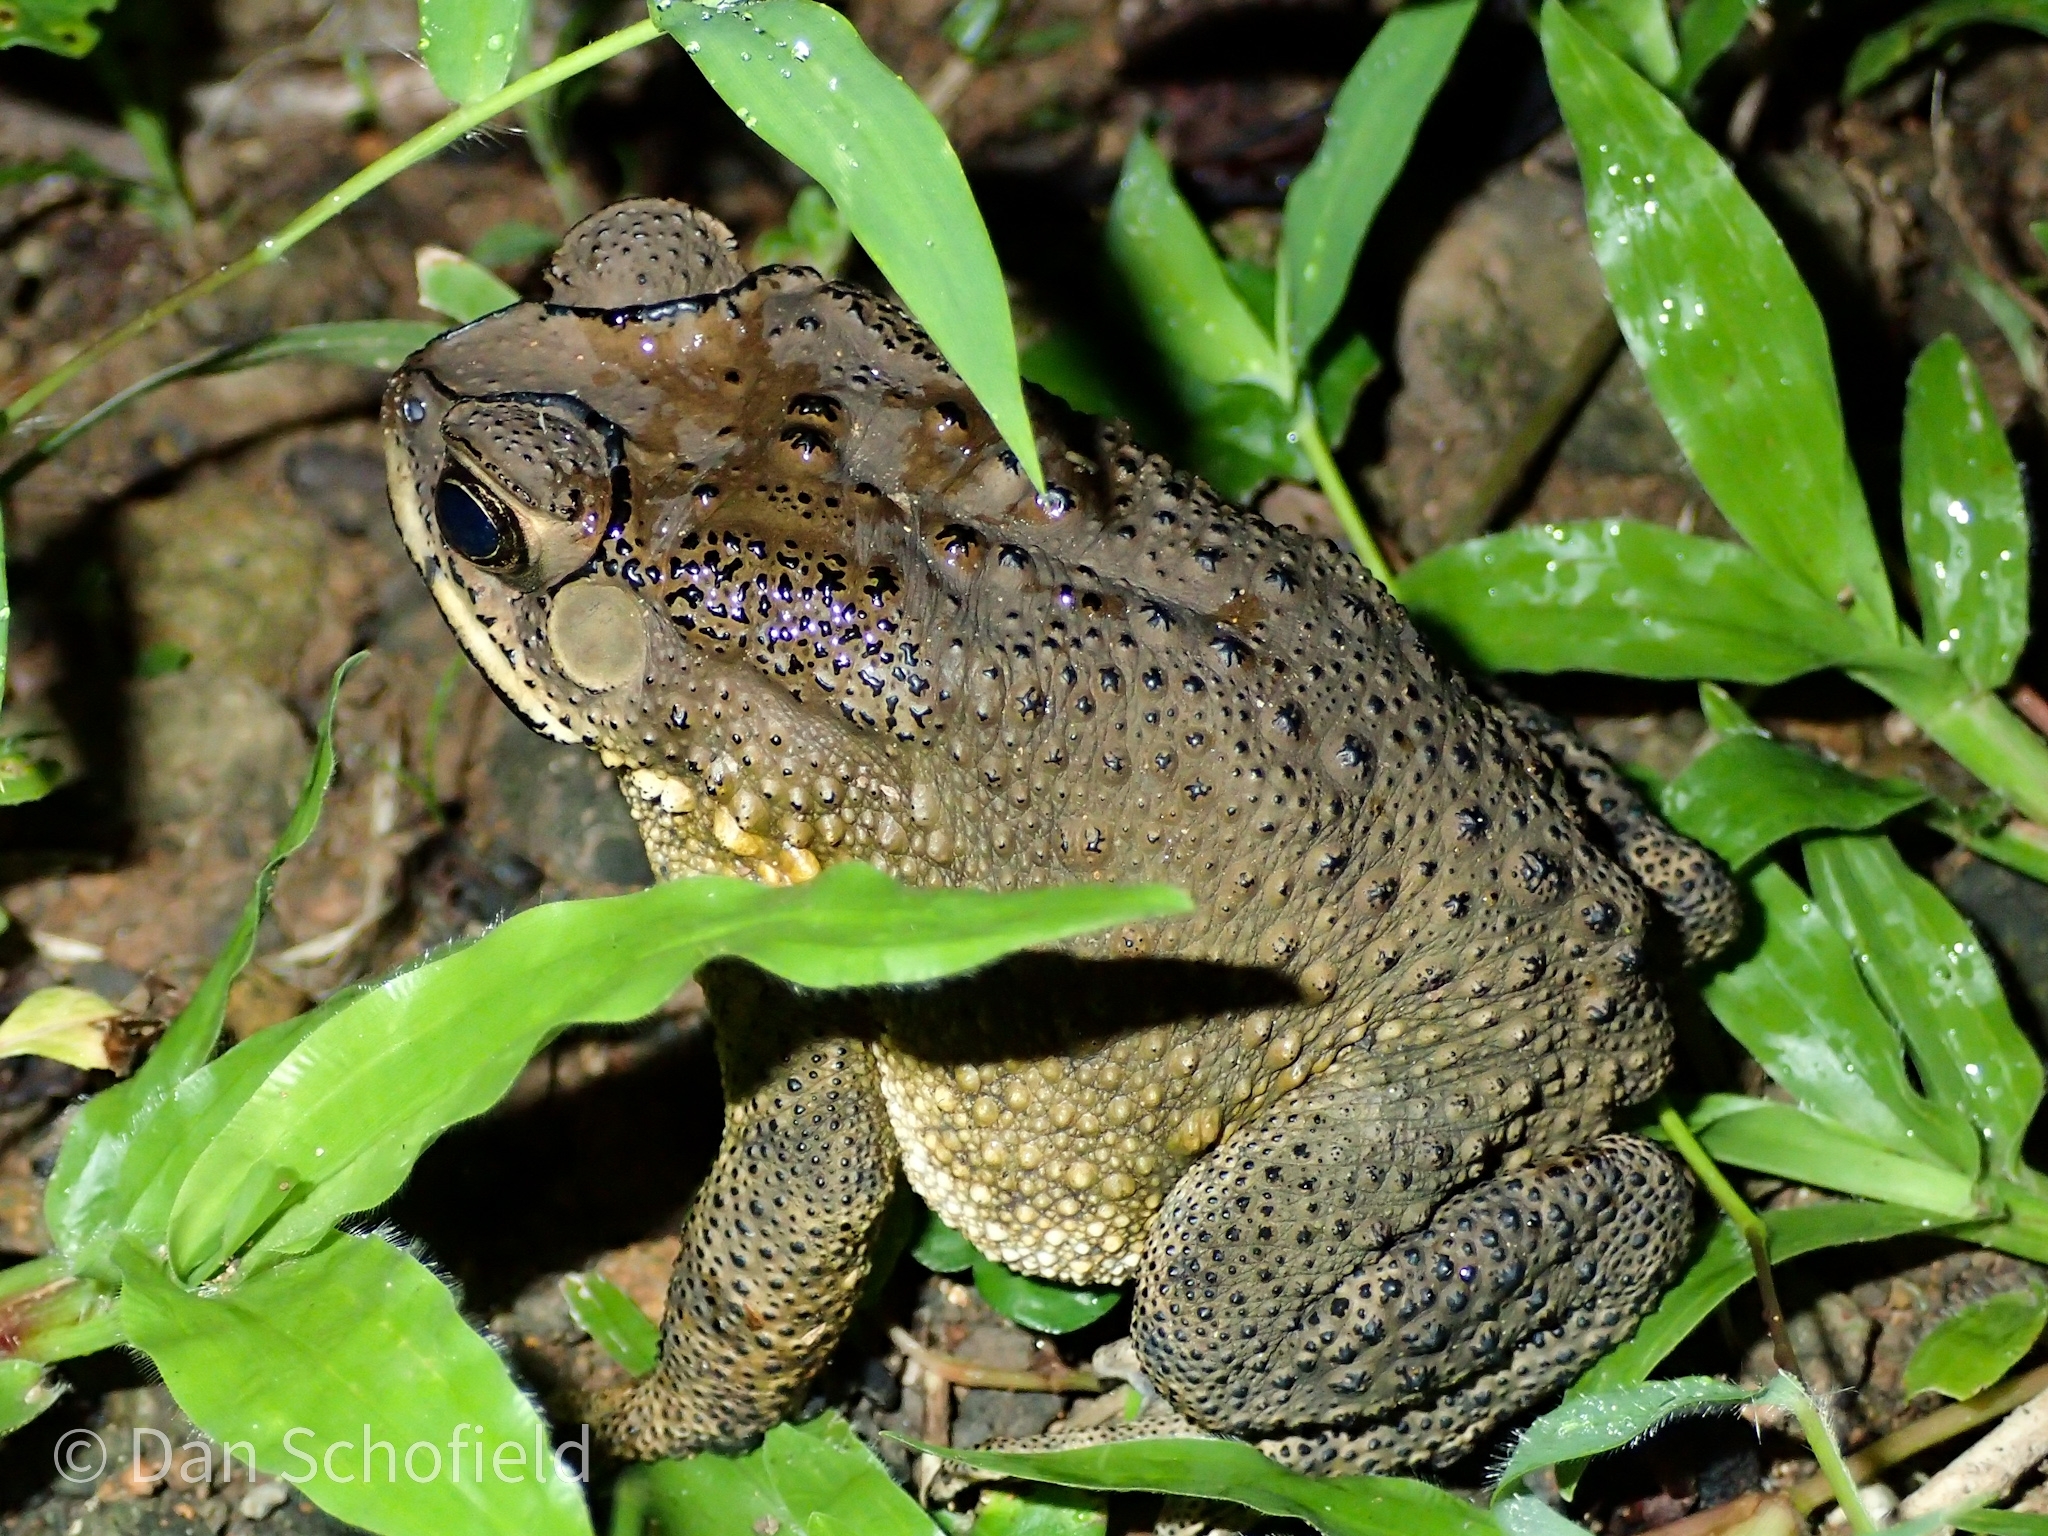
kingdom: Animalia
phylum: Chordata
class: Amphibia
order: Anura
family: Bufonidae
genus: Duttaphrynus
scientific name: Duttaphrynus melanostictus
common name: Common sunda toad
